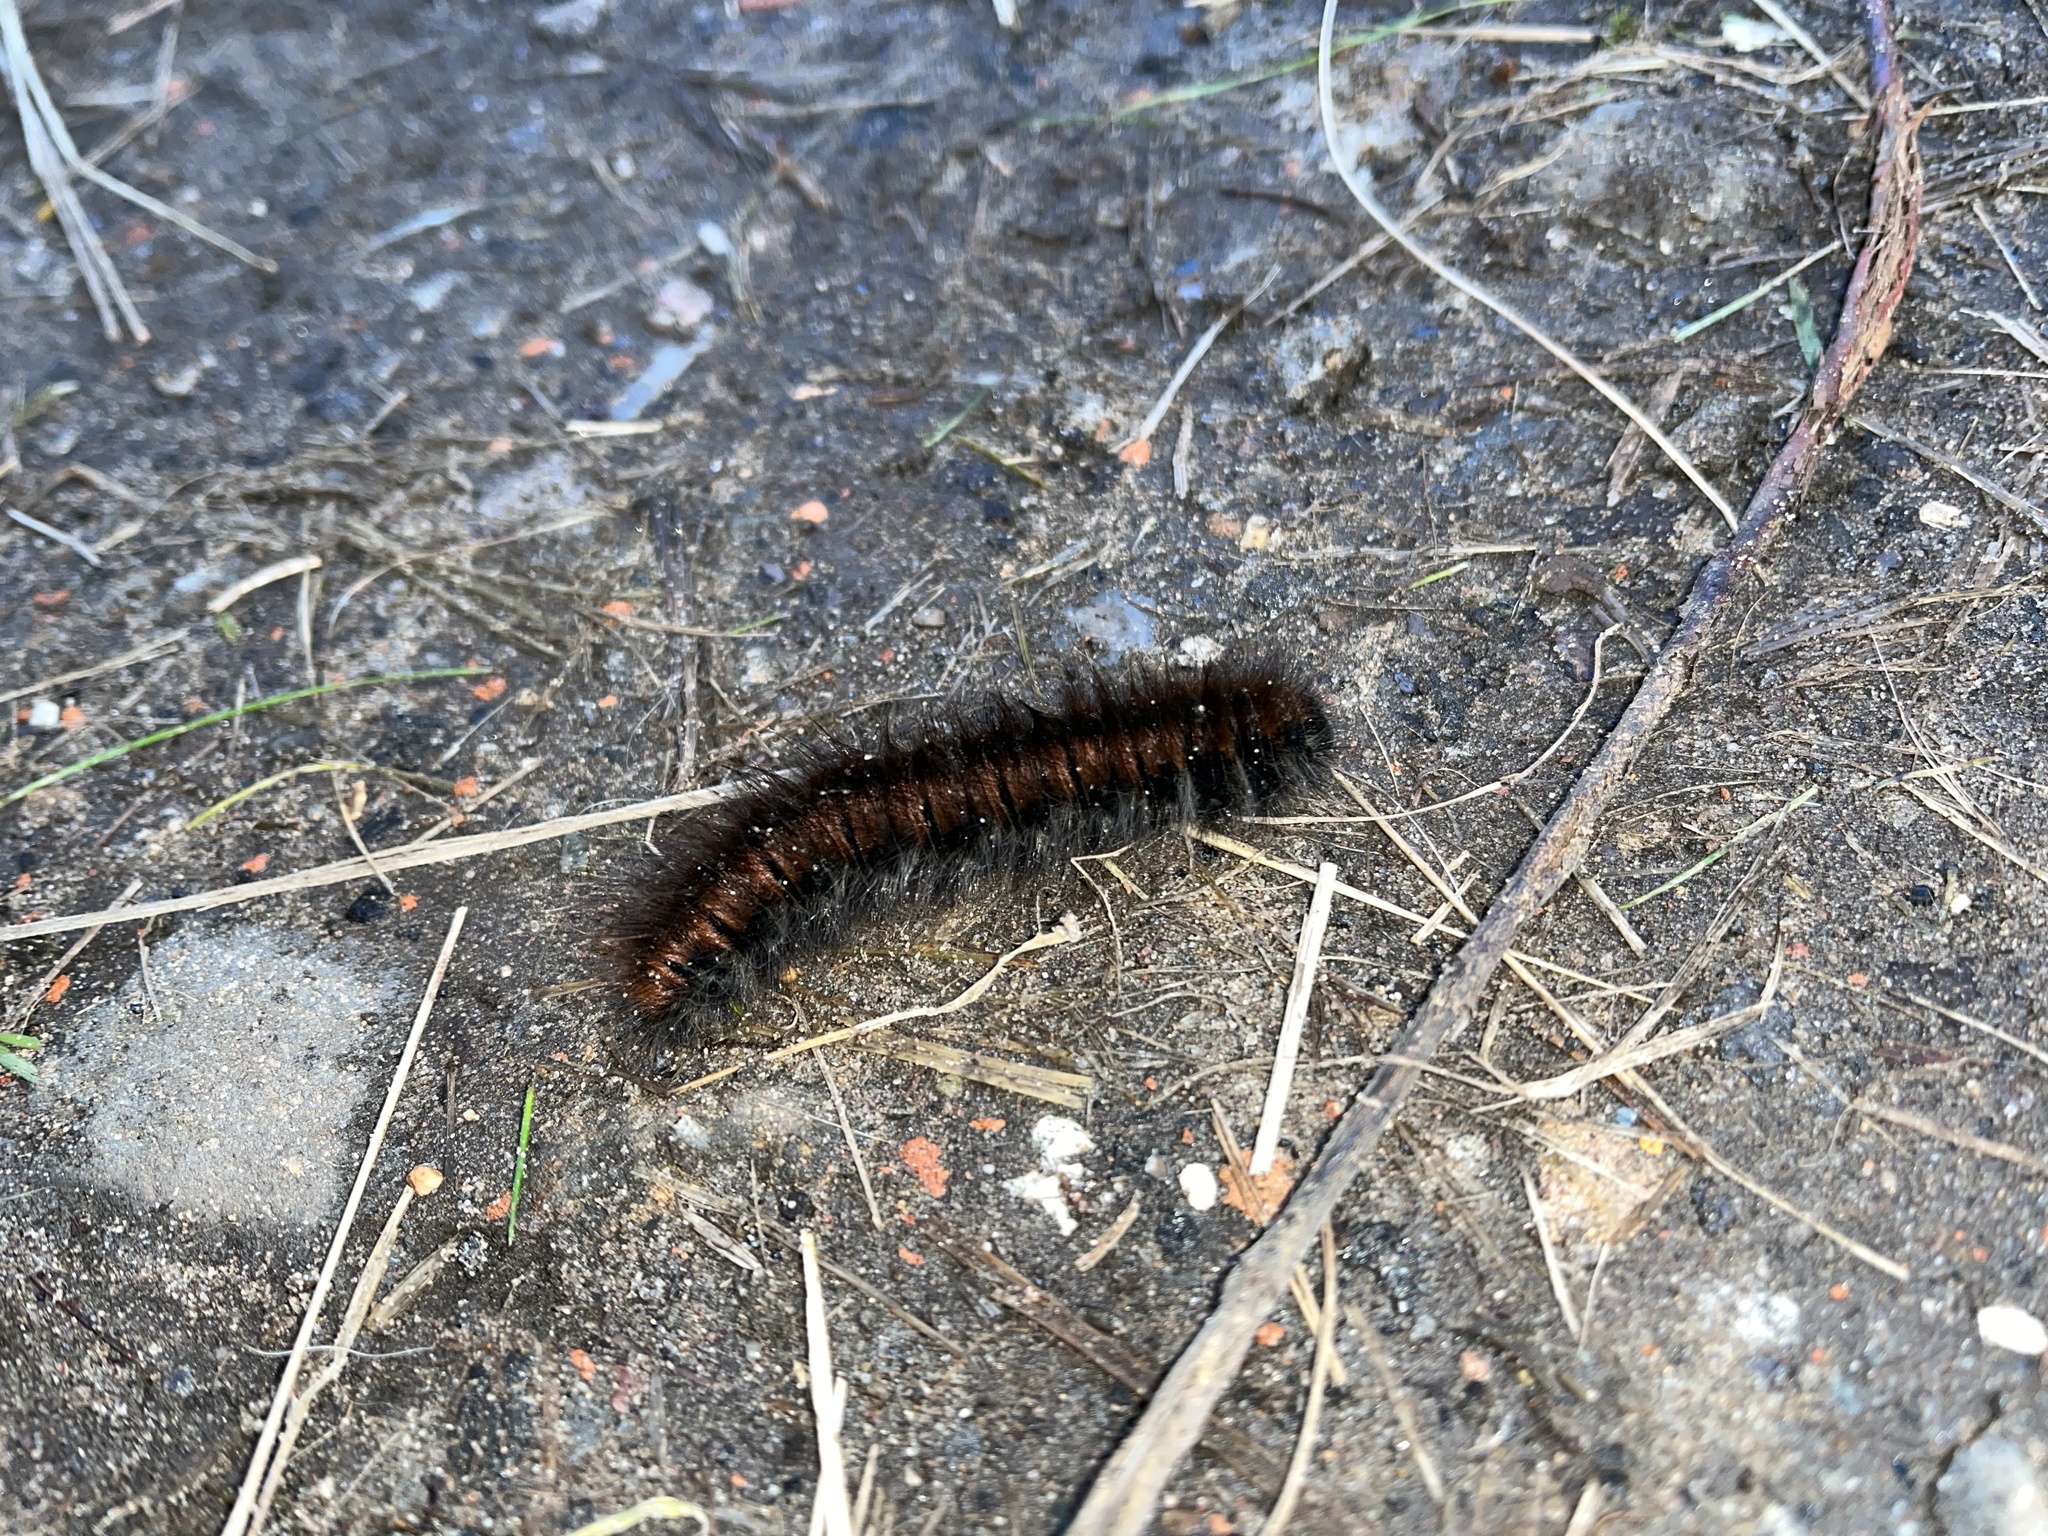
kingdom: Animalia
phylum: Arthropoda
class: Insecta
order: Lepidoptera
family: Lasiocampidae
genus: Macrothylacia
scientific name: Macrothylacia rubi
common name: Fox moth
